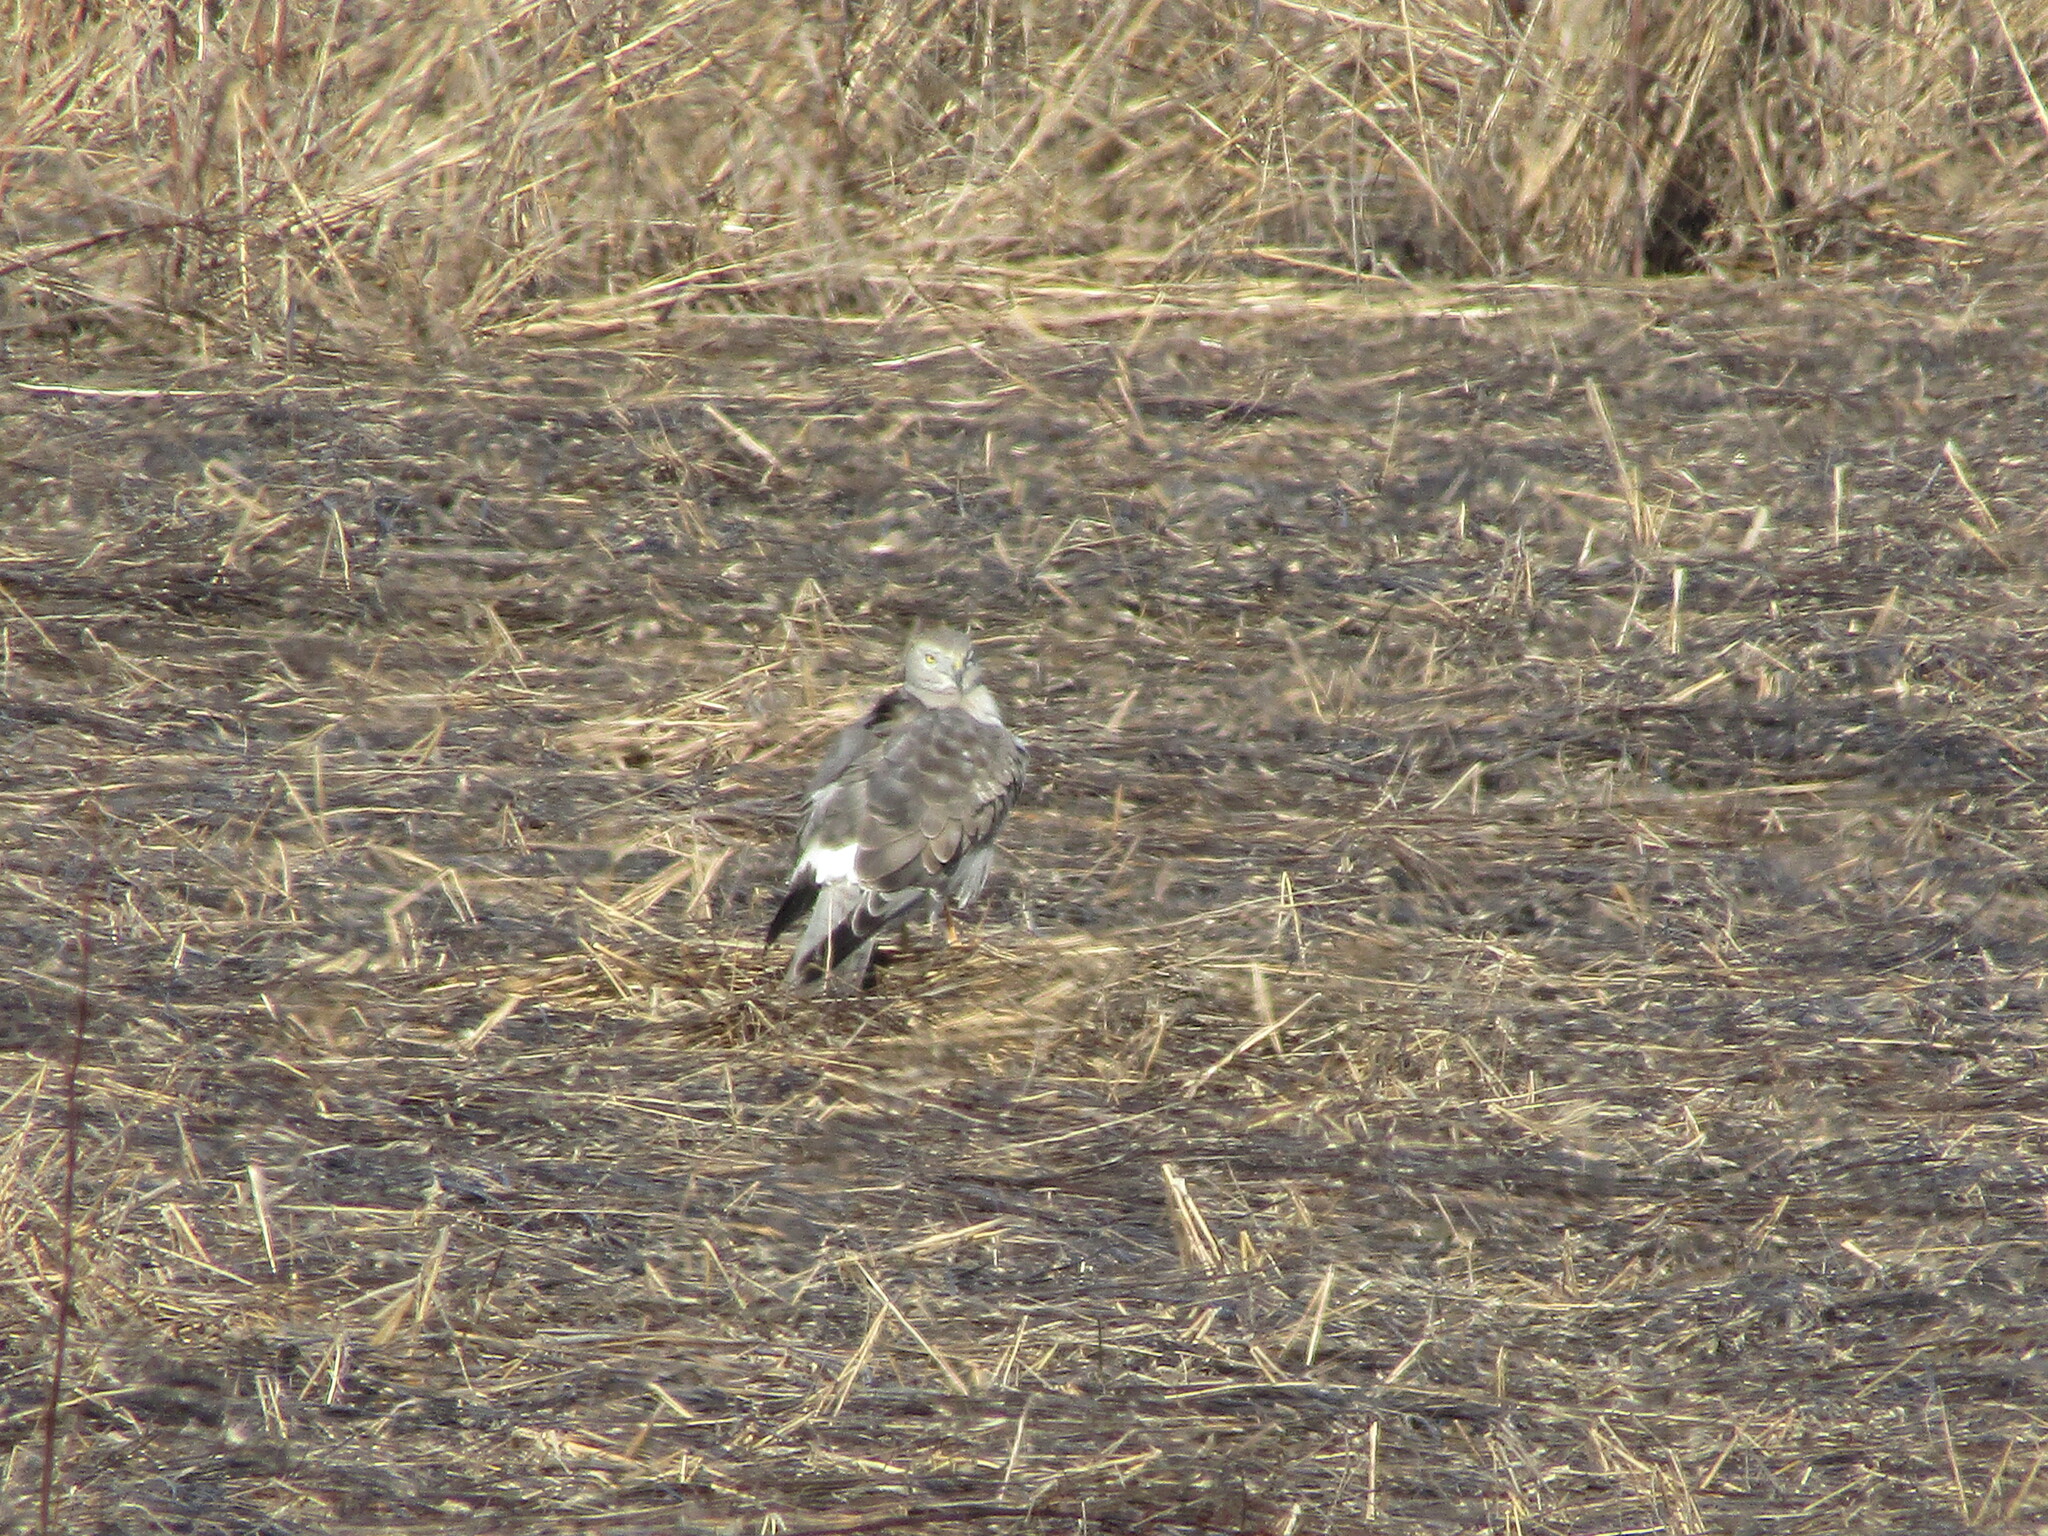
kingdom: Animalia
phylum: Chordata
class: Aves
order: Accipitriformes
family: Accipitridae
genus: Circus
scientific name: Circus cyaneus
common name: Hen harrier
